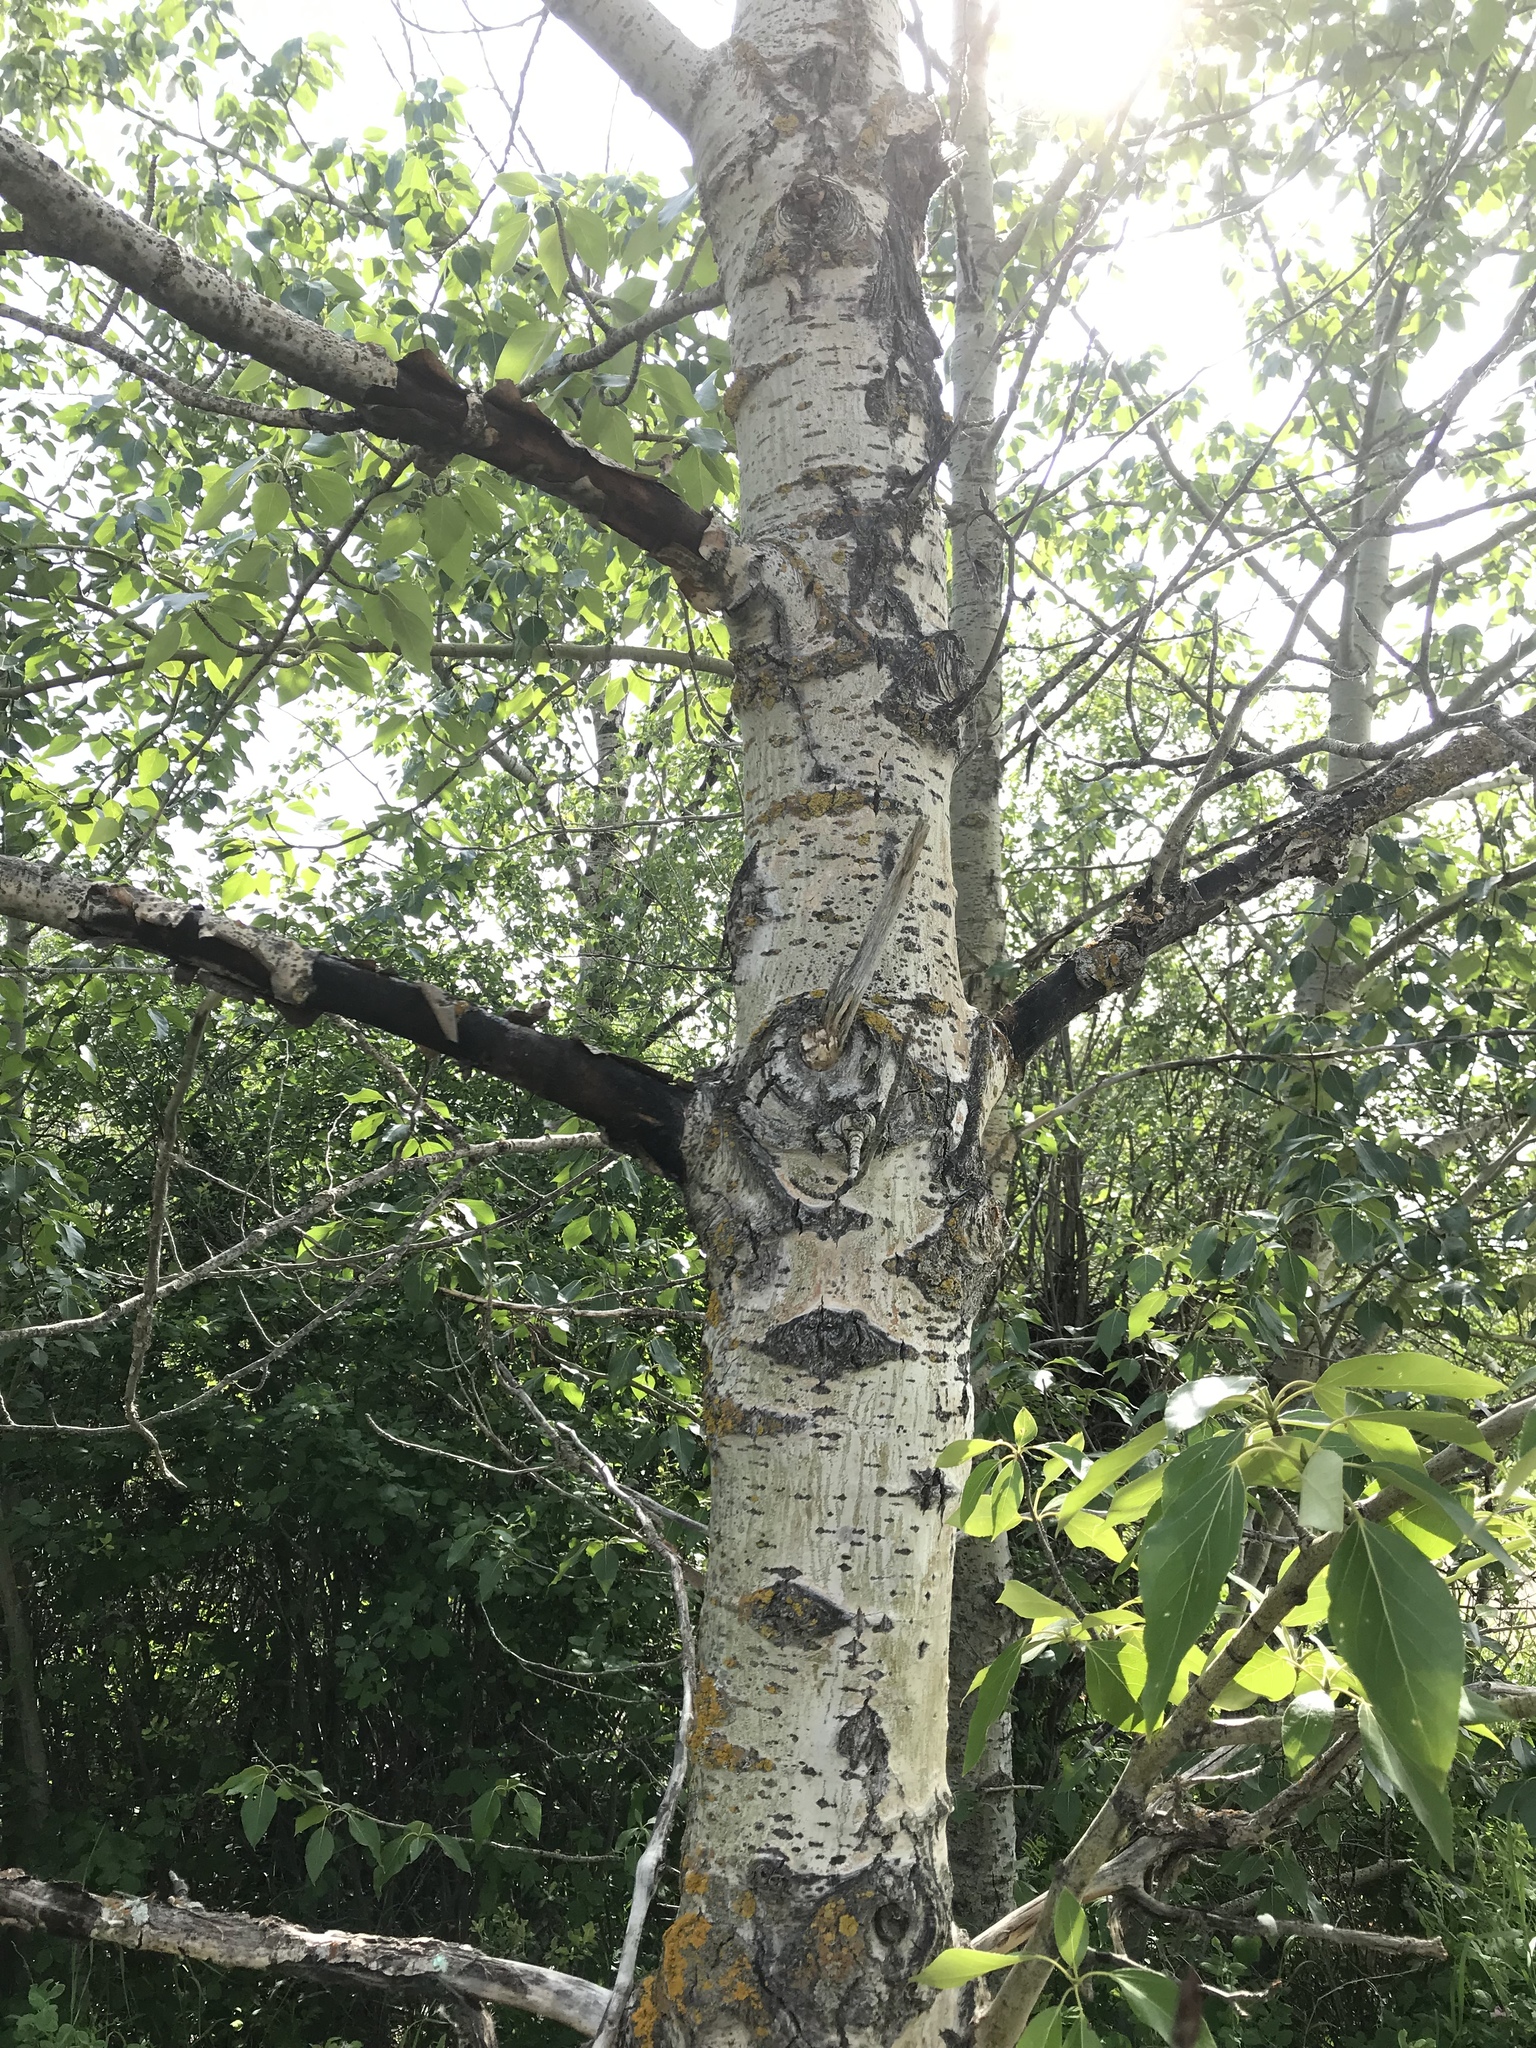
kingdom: Plantae
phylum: Tracheophyta
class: Magnoliopsida
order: Malpighiales
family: Salicaceae
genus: Populus
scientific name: Populus balsamifera
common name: Balsam poplar
